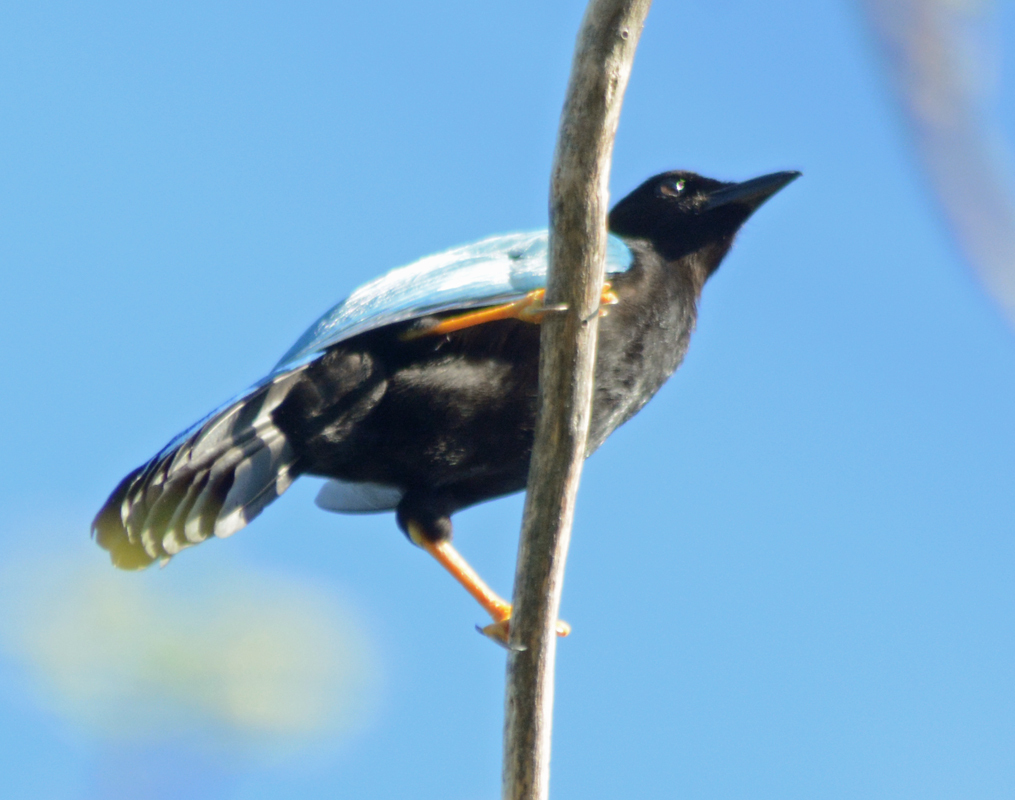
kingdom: Animalia
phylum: Chordata
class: Aves
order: Passeriformes
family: Corvidae
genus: Cyanocorax
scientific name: Cyanocorax yucatanicus
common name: Yucatan jay
